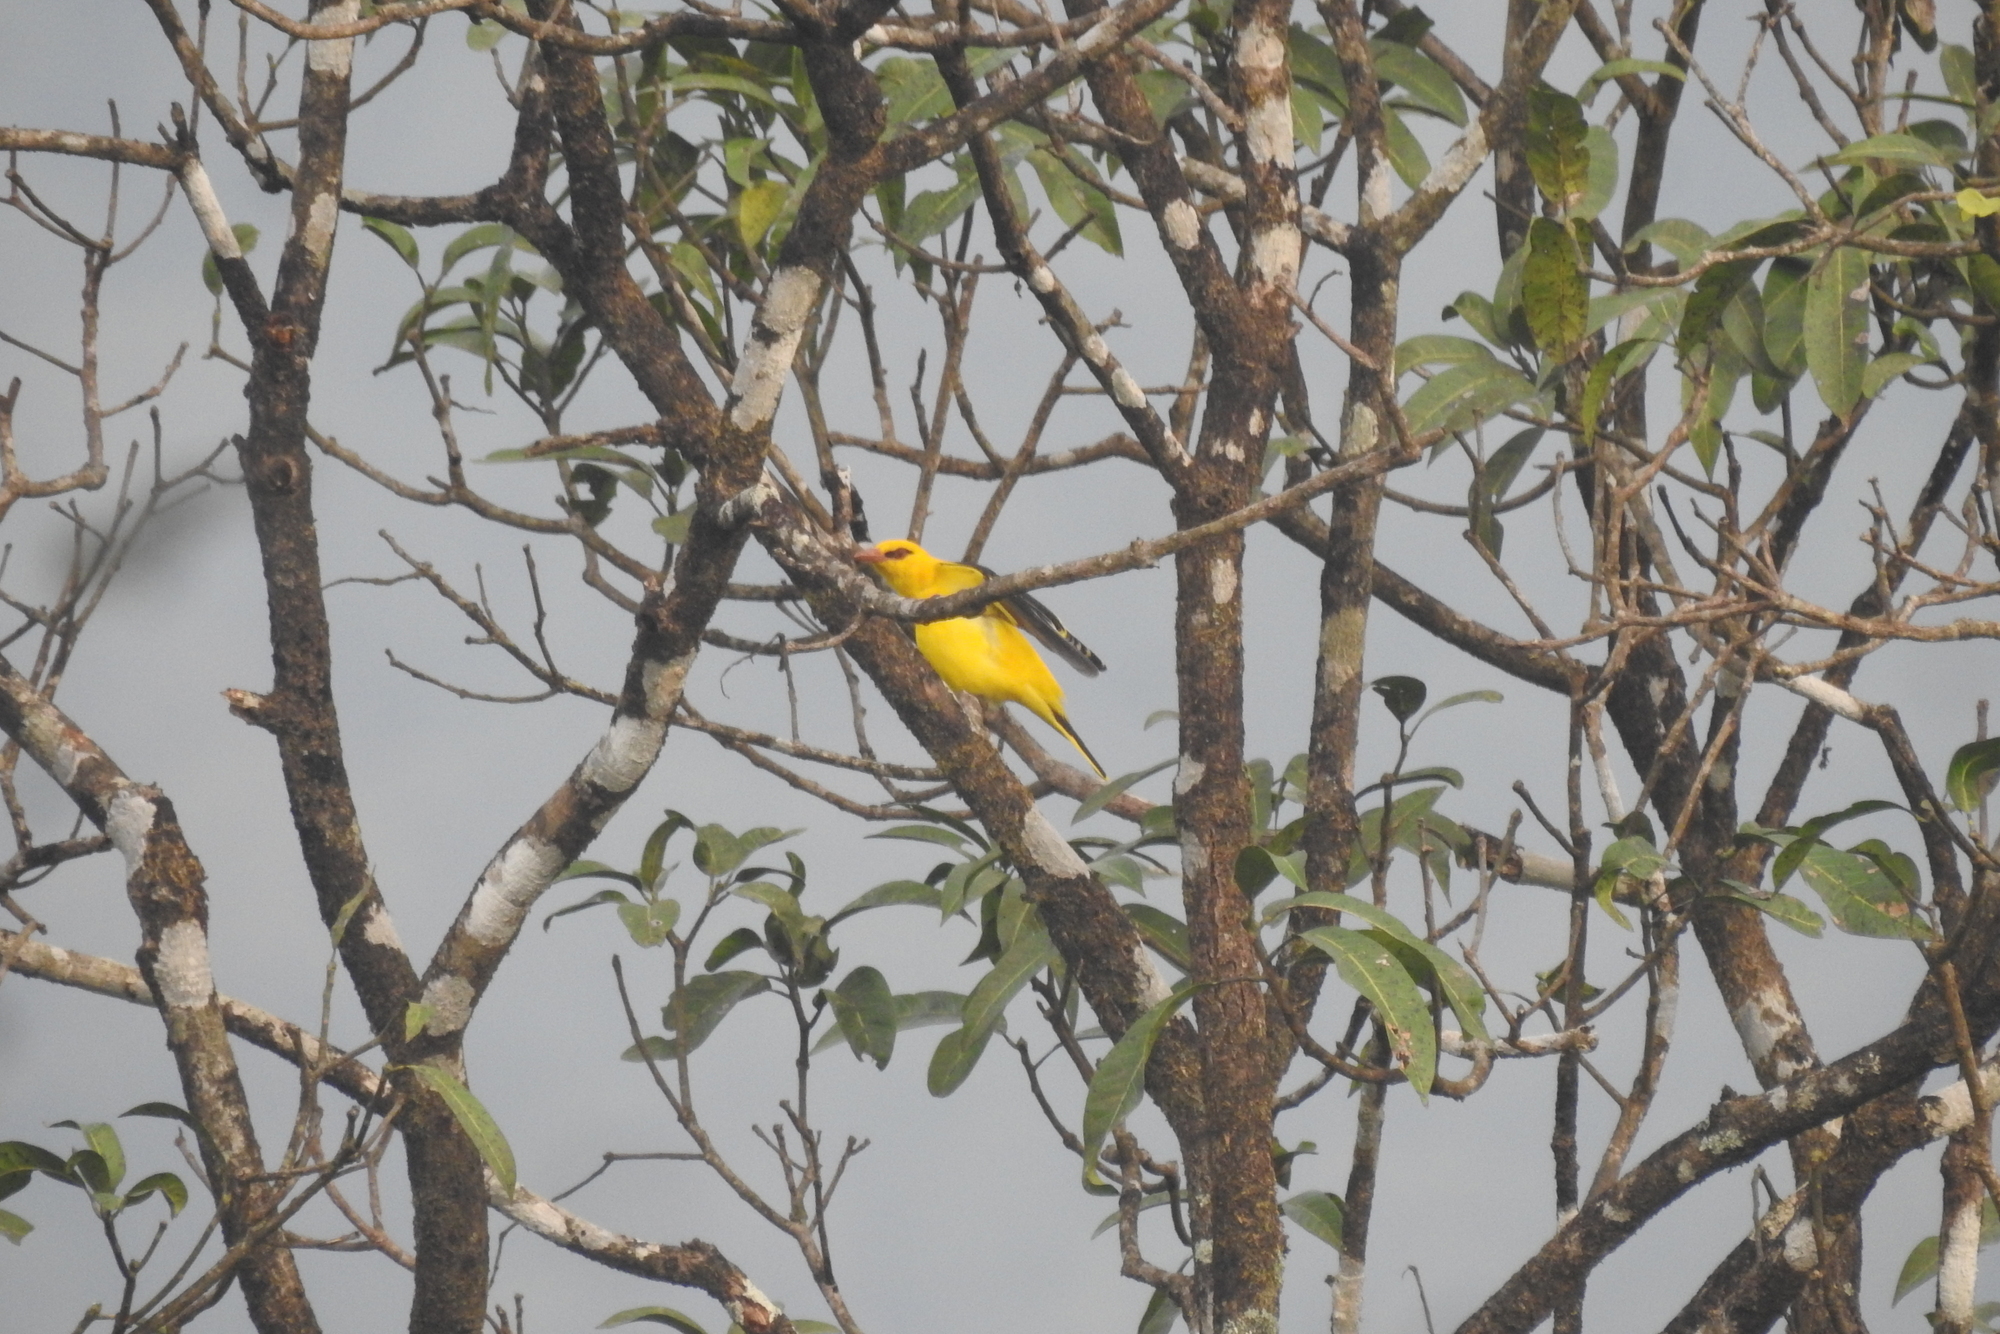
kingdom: Animalia
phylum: Chordata
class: Aves
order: Passeriformes
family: Oriolidae
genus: Oriolus
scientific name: Oriolus kundoo
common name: Indian golden oriole
